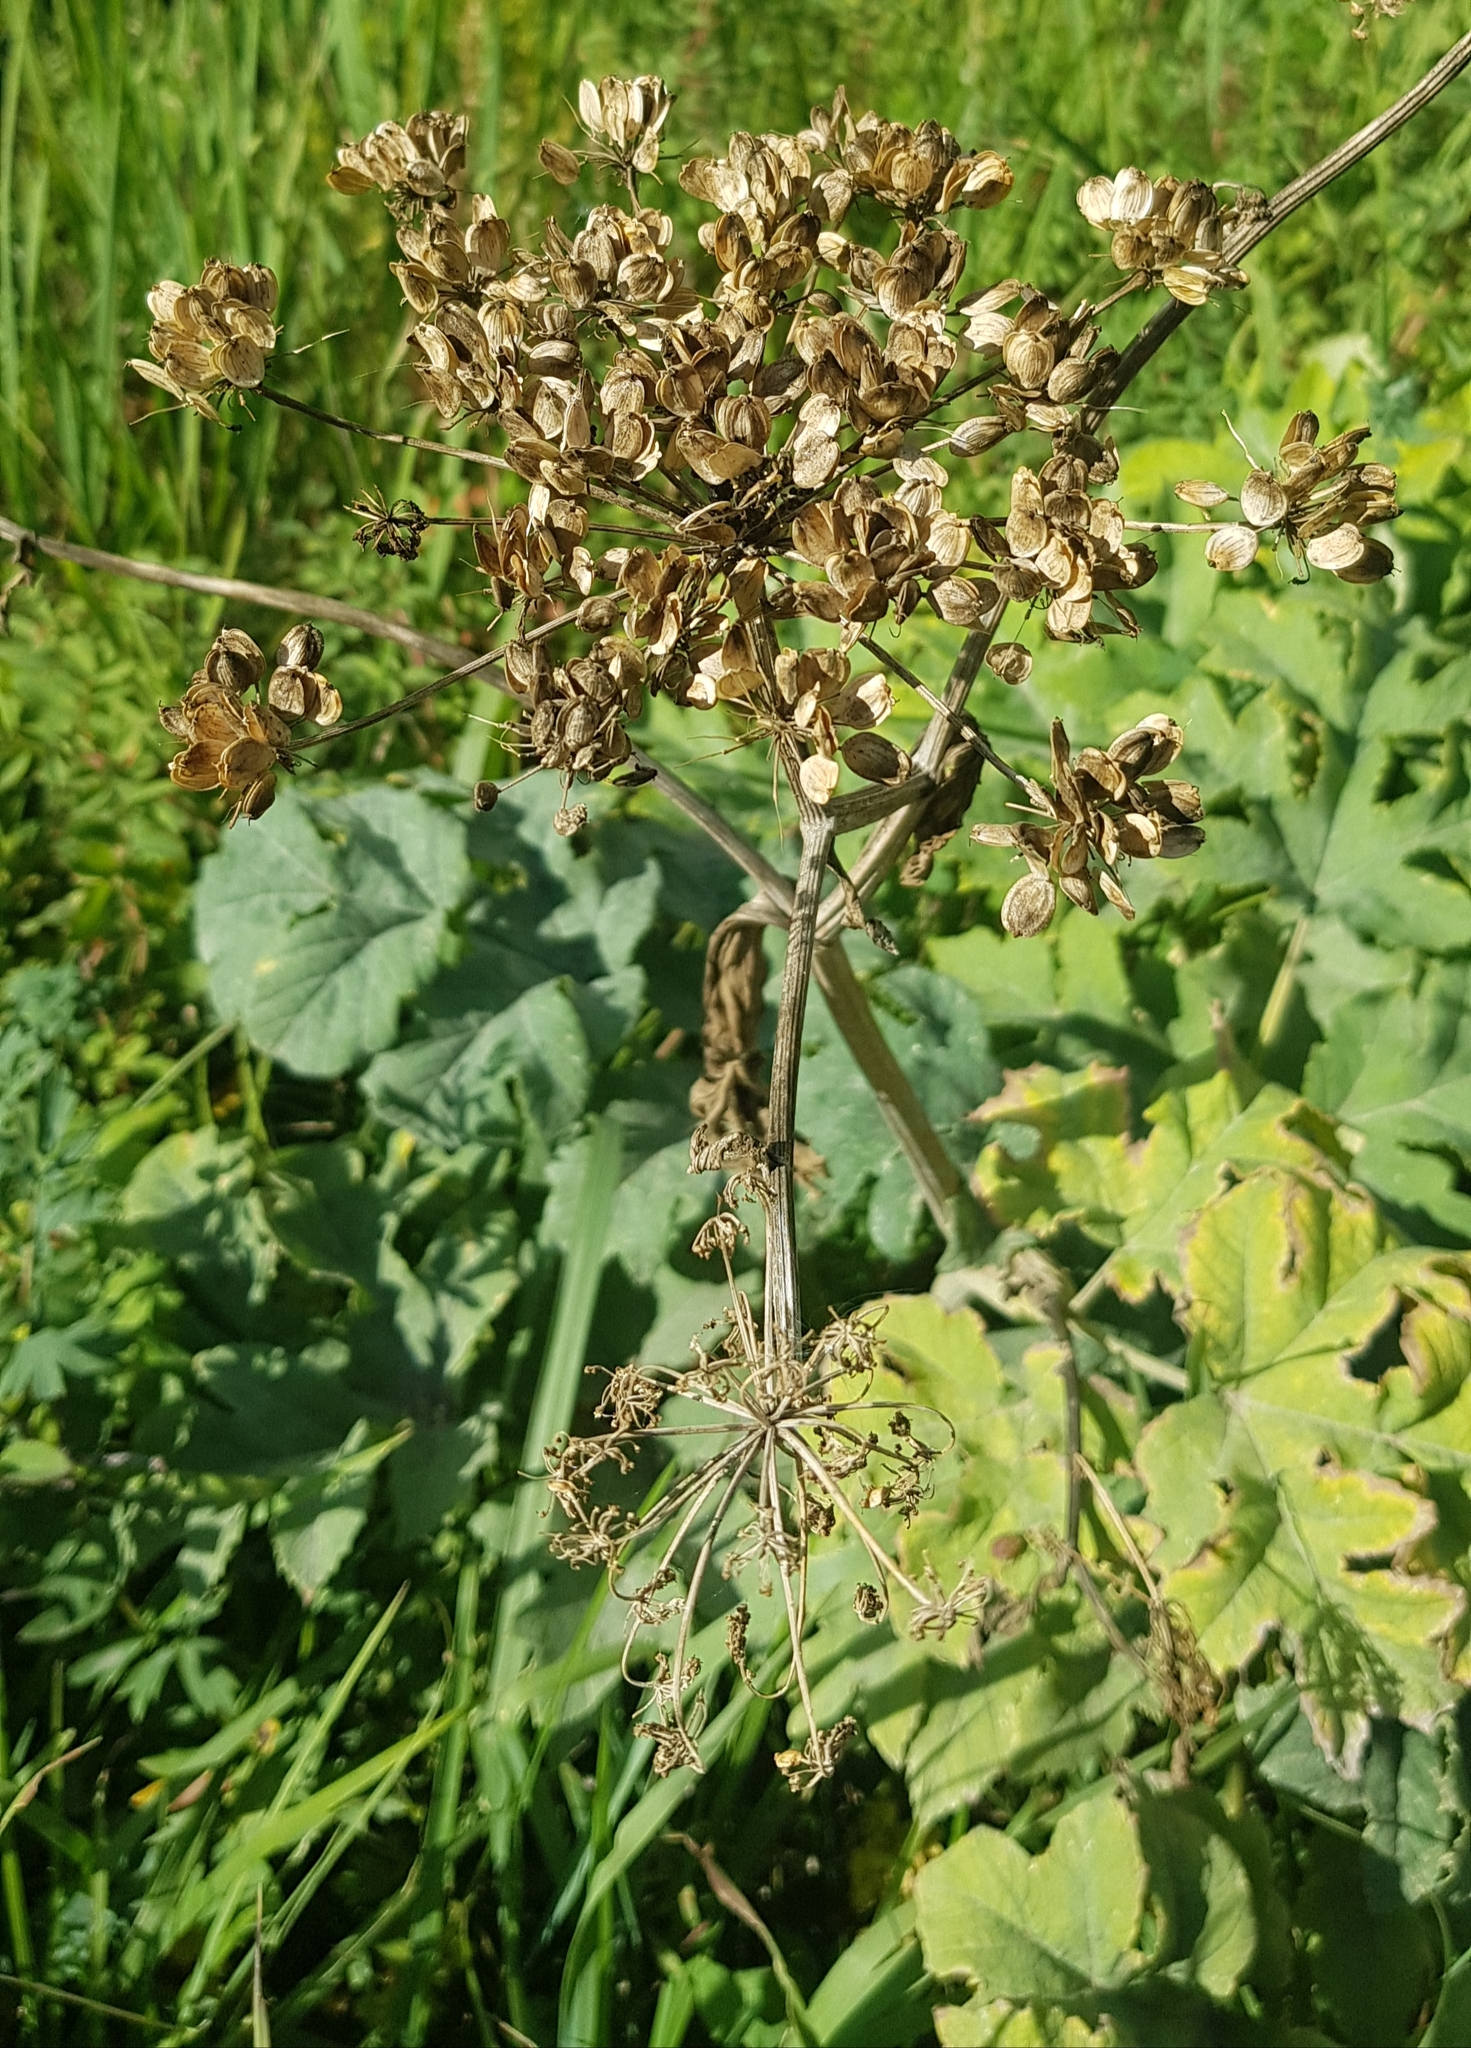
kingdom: Plantae
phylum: Tracheophyta
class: Magnoliopsida
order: Apiales
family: Apiaceae
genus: Heracleum
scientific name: Heracleum dissectum
